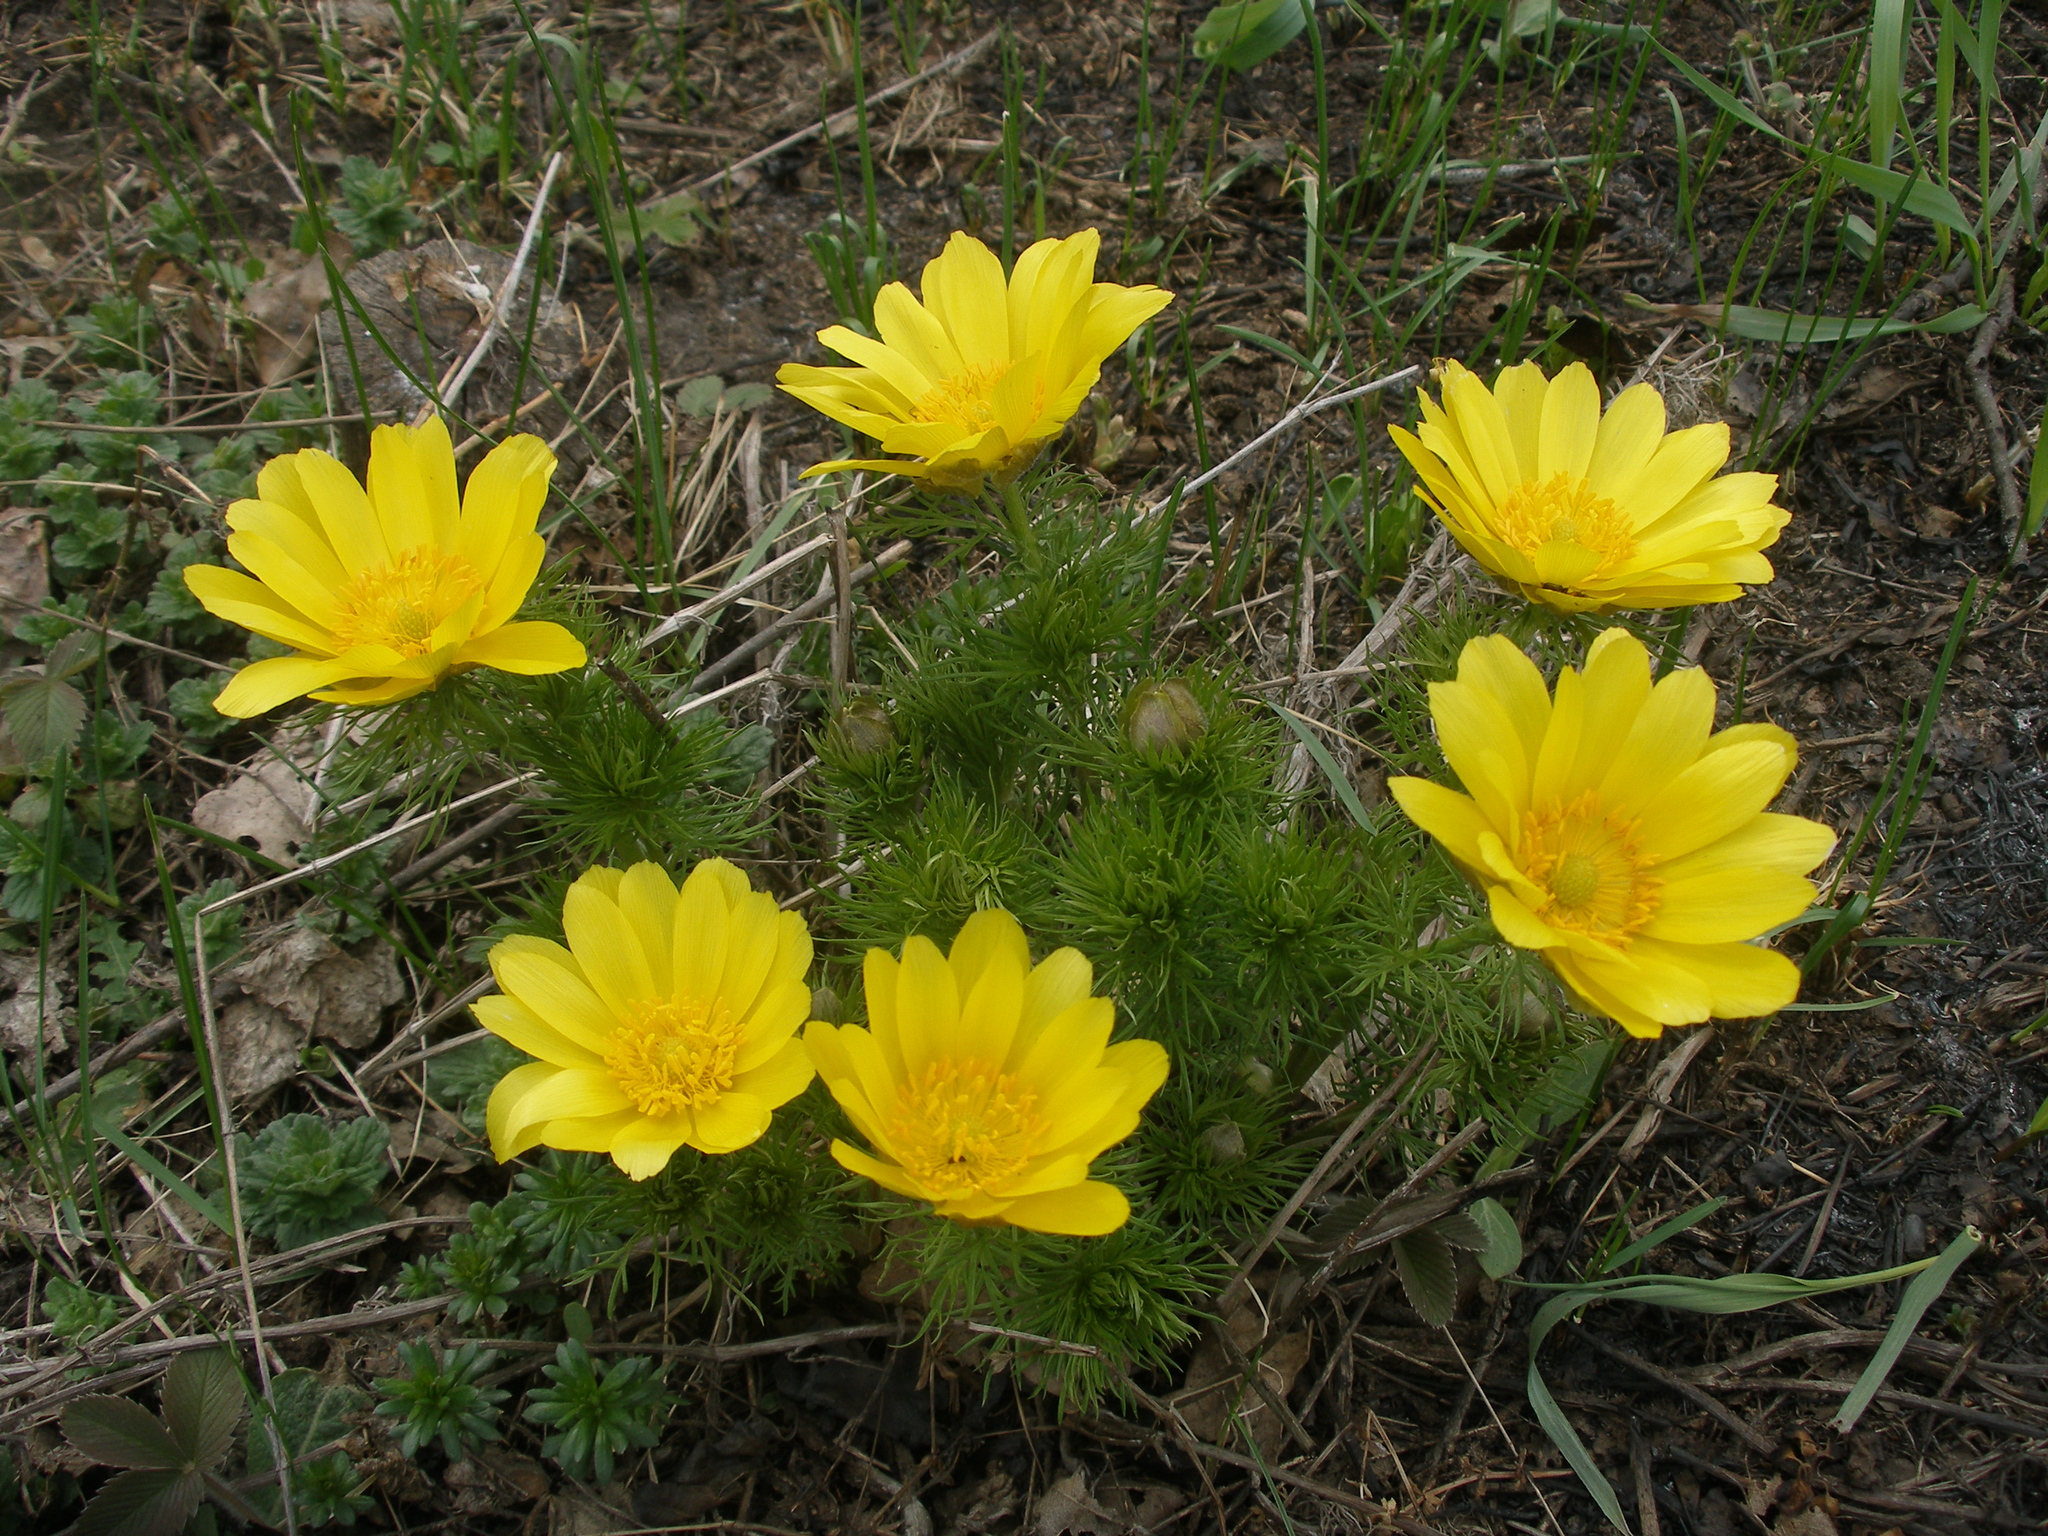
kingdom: Plantae
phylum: Tracheophyta
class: Magnoliopsida
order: Ranunculales
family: Ranunculaceae
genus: Adonis
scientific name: Adonis vernalis
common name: Yellow pheasants-eye
